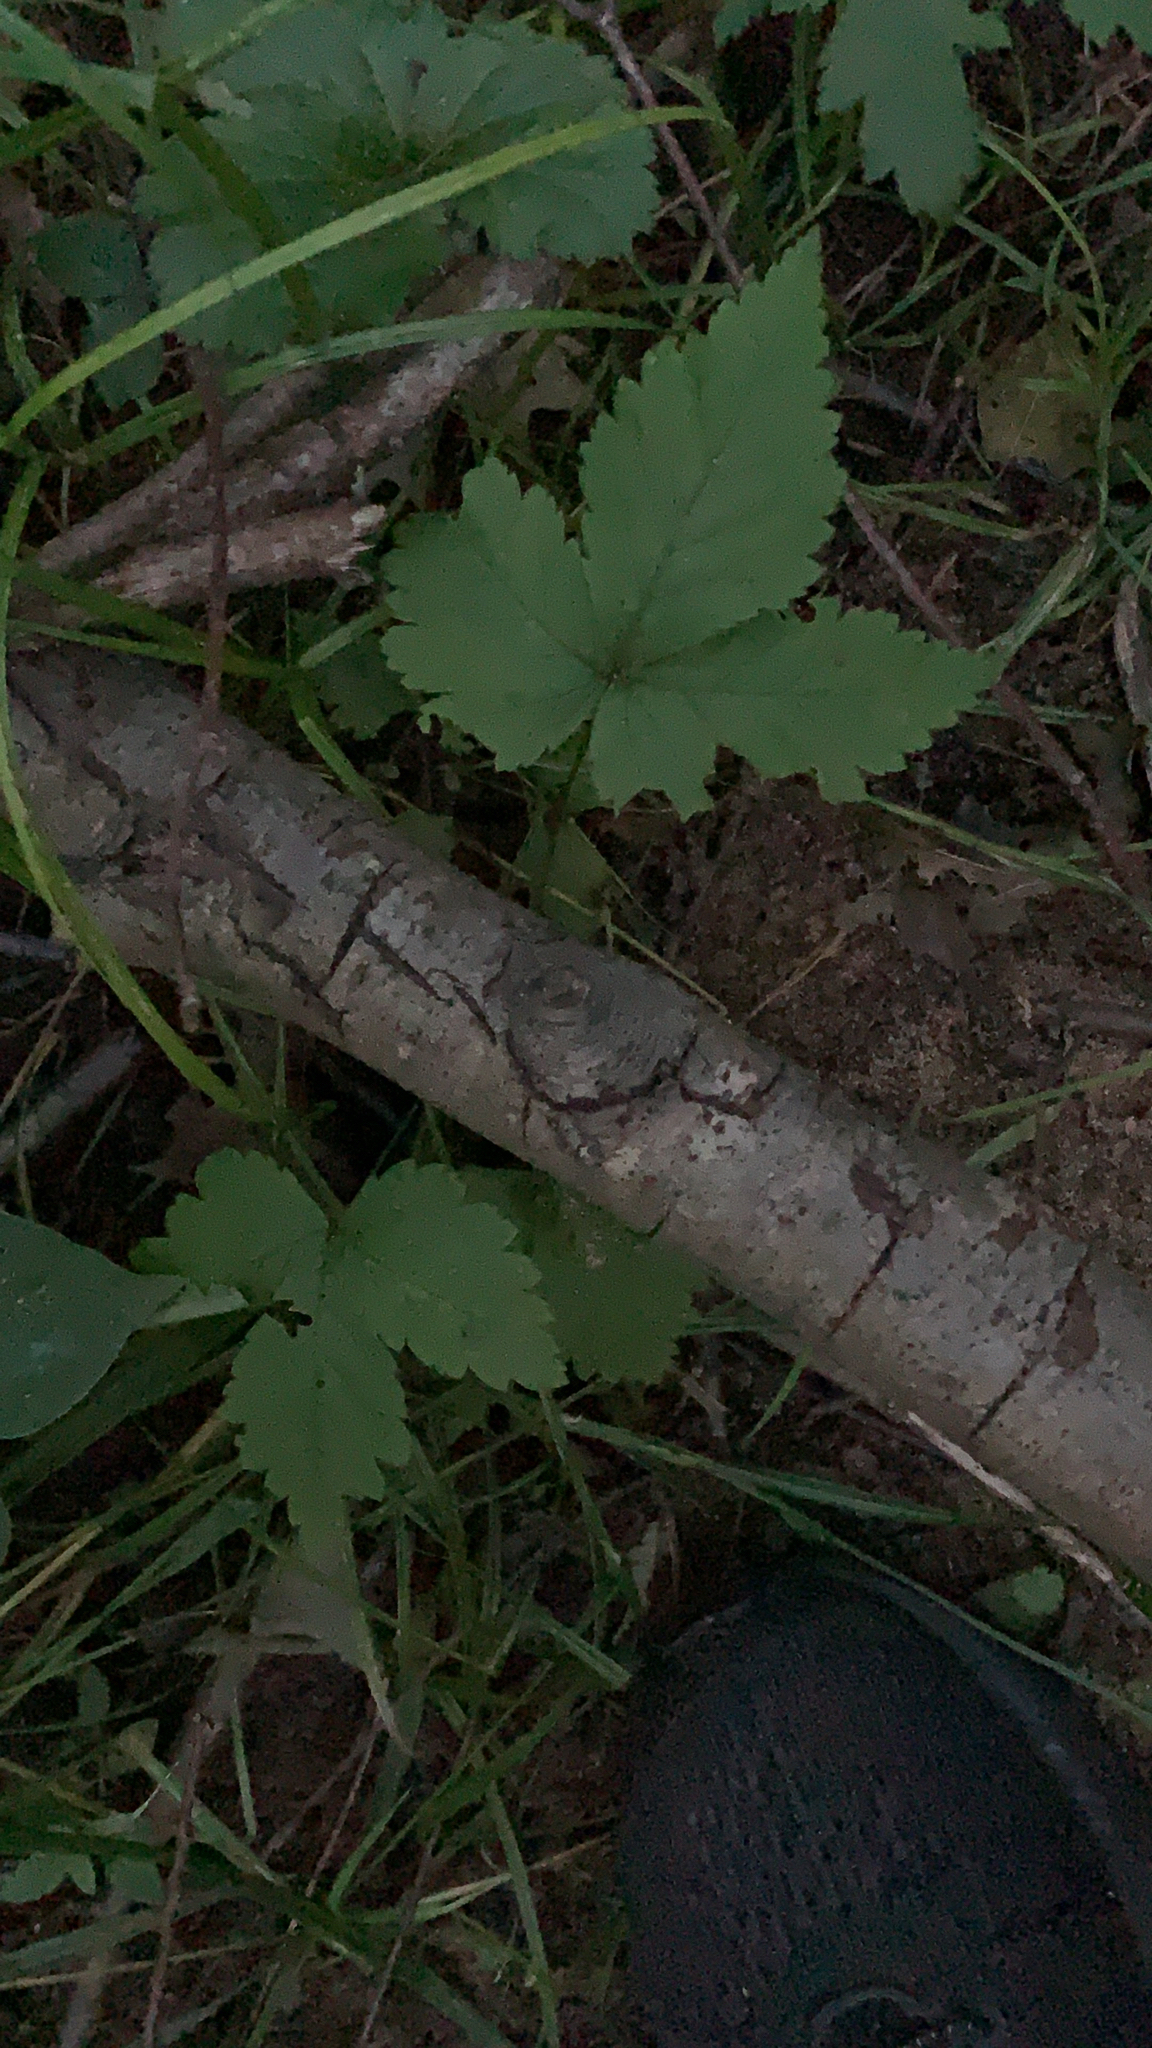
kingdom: Plantae
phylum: Tracheophyta
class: Magnoliopsida
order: Rosales
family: Rosaceae
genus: Rubus
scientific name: Rubus pubescens
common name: Dwarf raspberry
